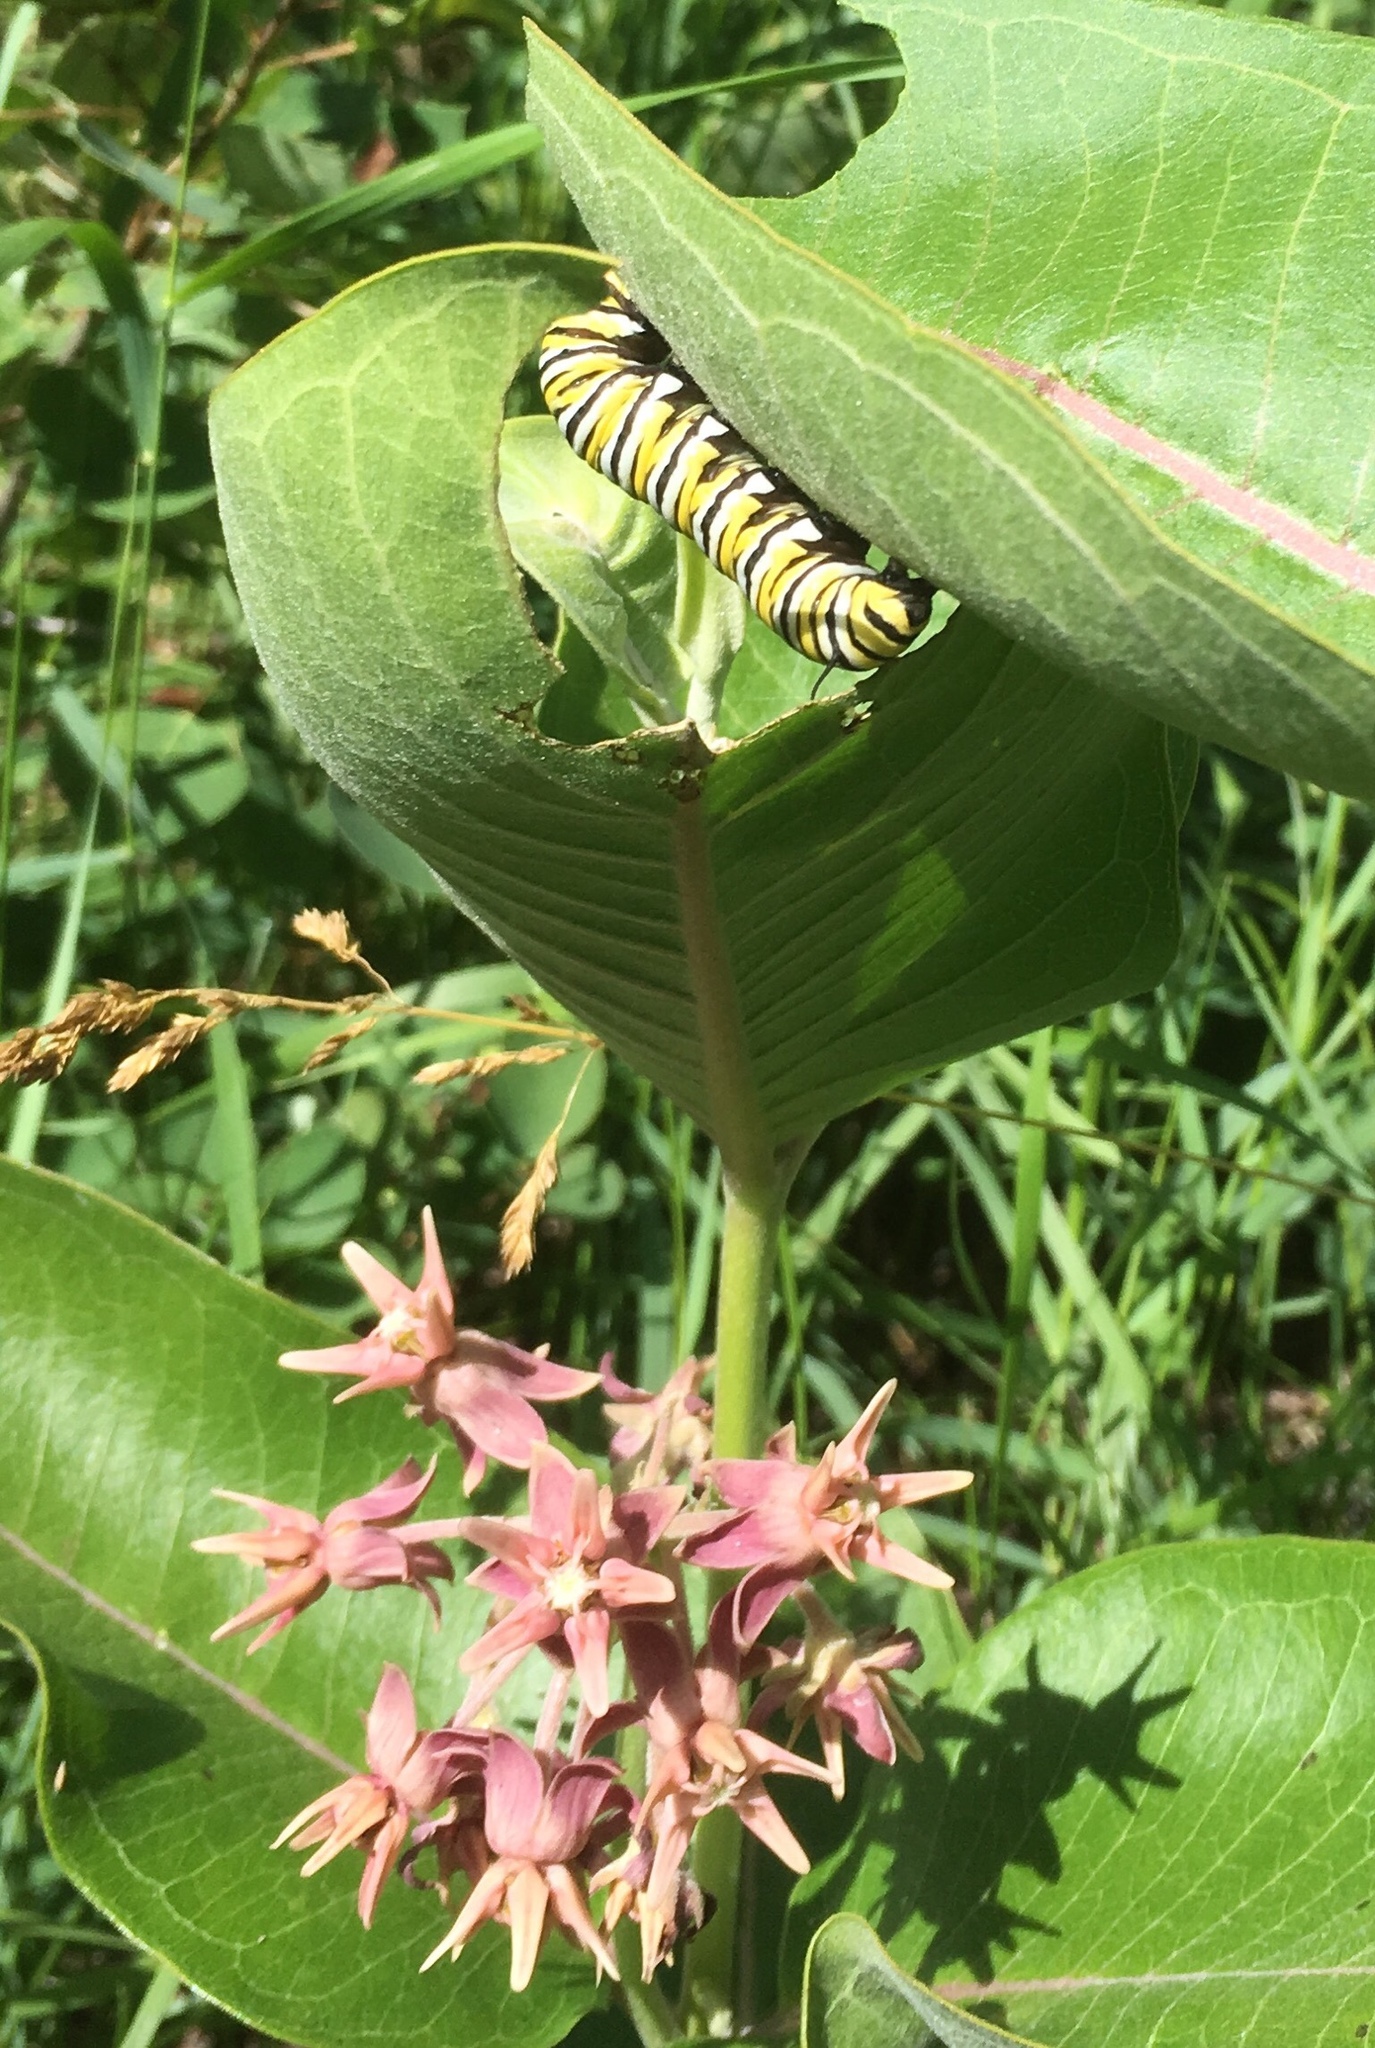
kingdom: Animalia
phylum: Arthropoda
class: Insecta
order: Lepidoptera
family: Nymphalidae
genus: Danaus
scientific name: Danaus plexippus
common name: Monarch
